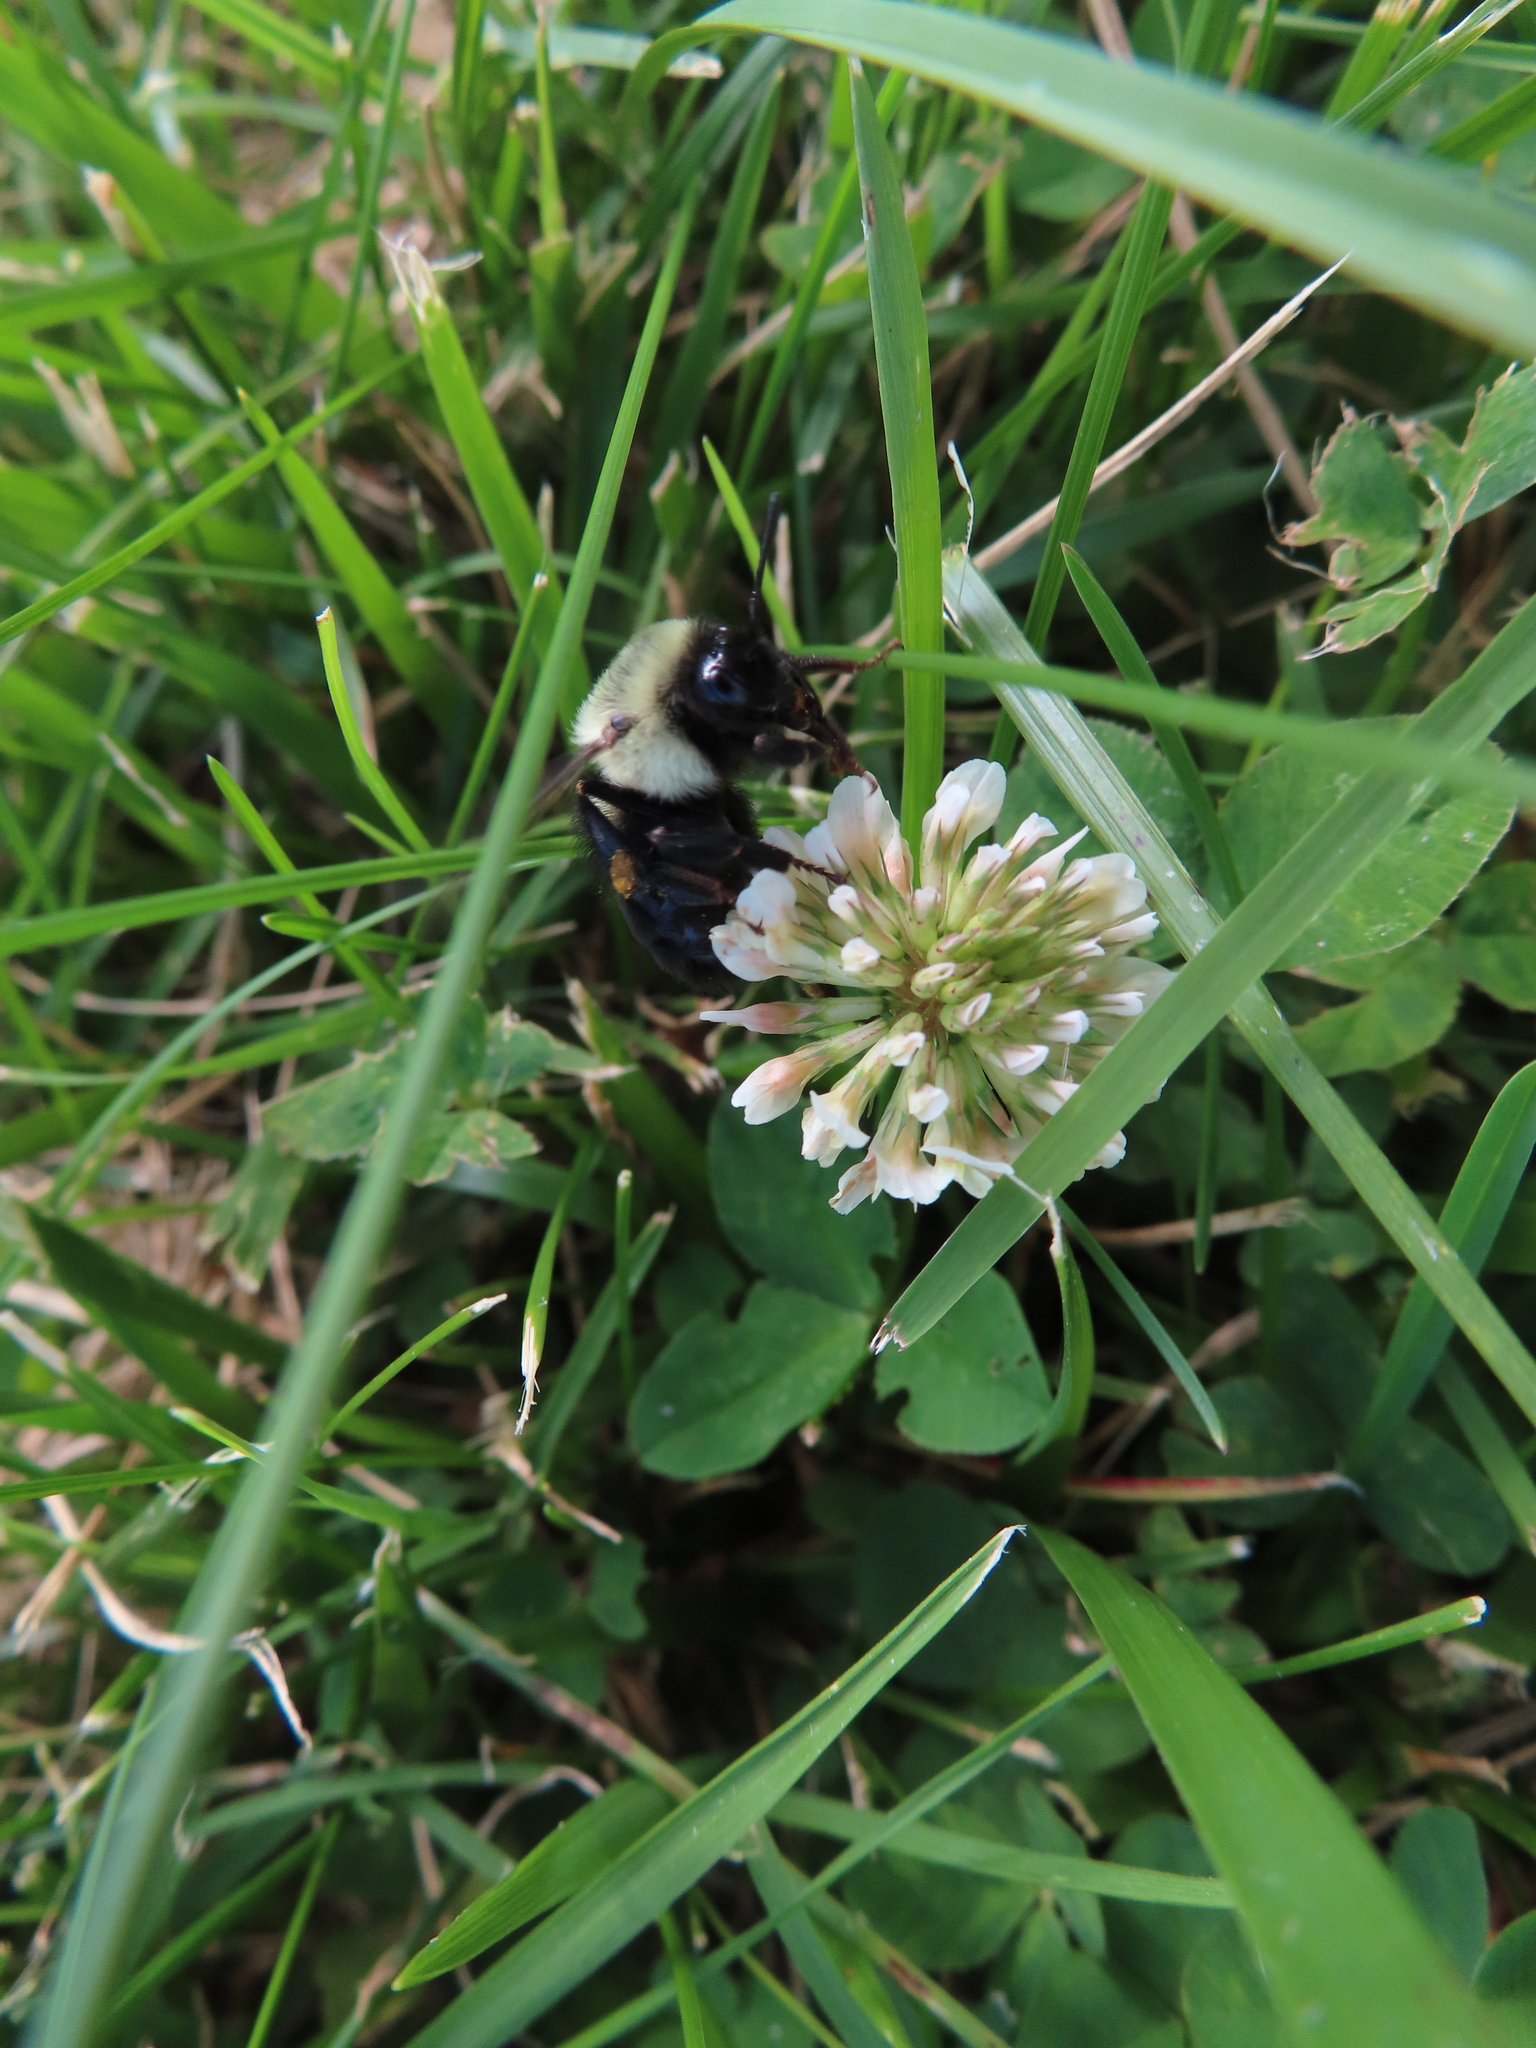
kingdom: Animalia
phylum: Arthropoda
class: Insecta
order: Hymenoptera
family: Apidae
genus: Bombus
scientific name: Bombus impatiens
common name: Common eastern bumble bee
